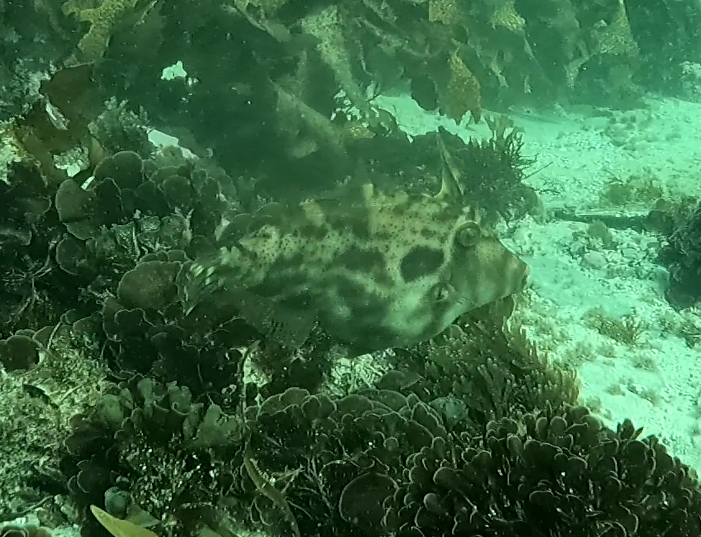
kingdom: Animalia
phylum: Chordata
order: Tetraodontiformes
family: Monacanthidae
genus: Scobinichthys
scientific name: Scobinichthys granulatus
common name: Rough leatherjacket
